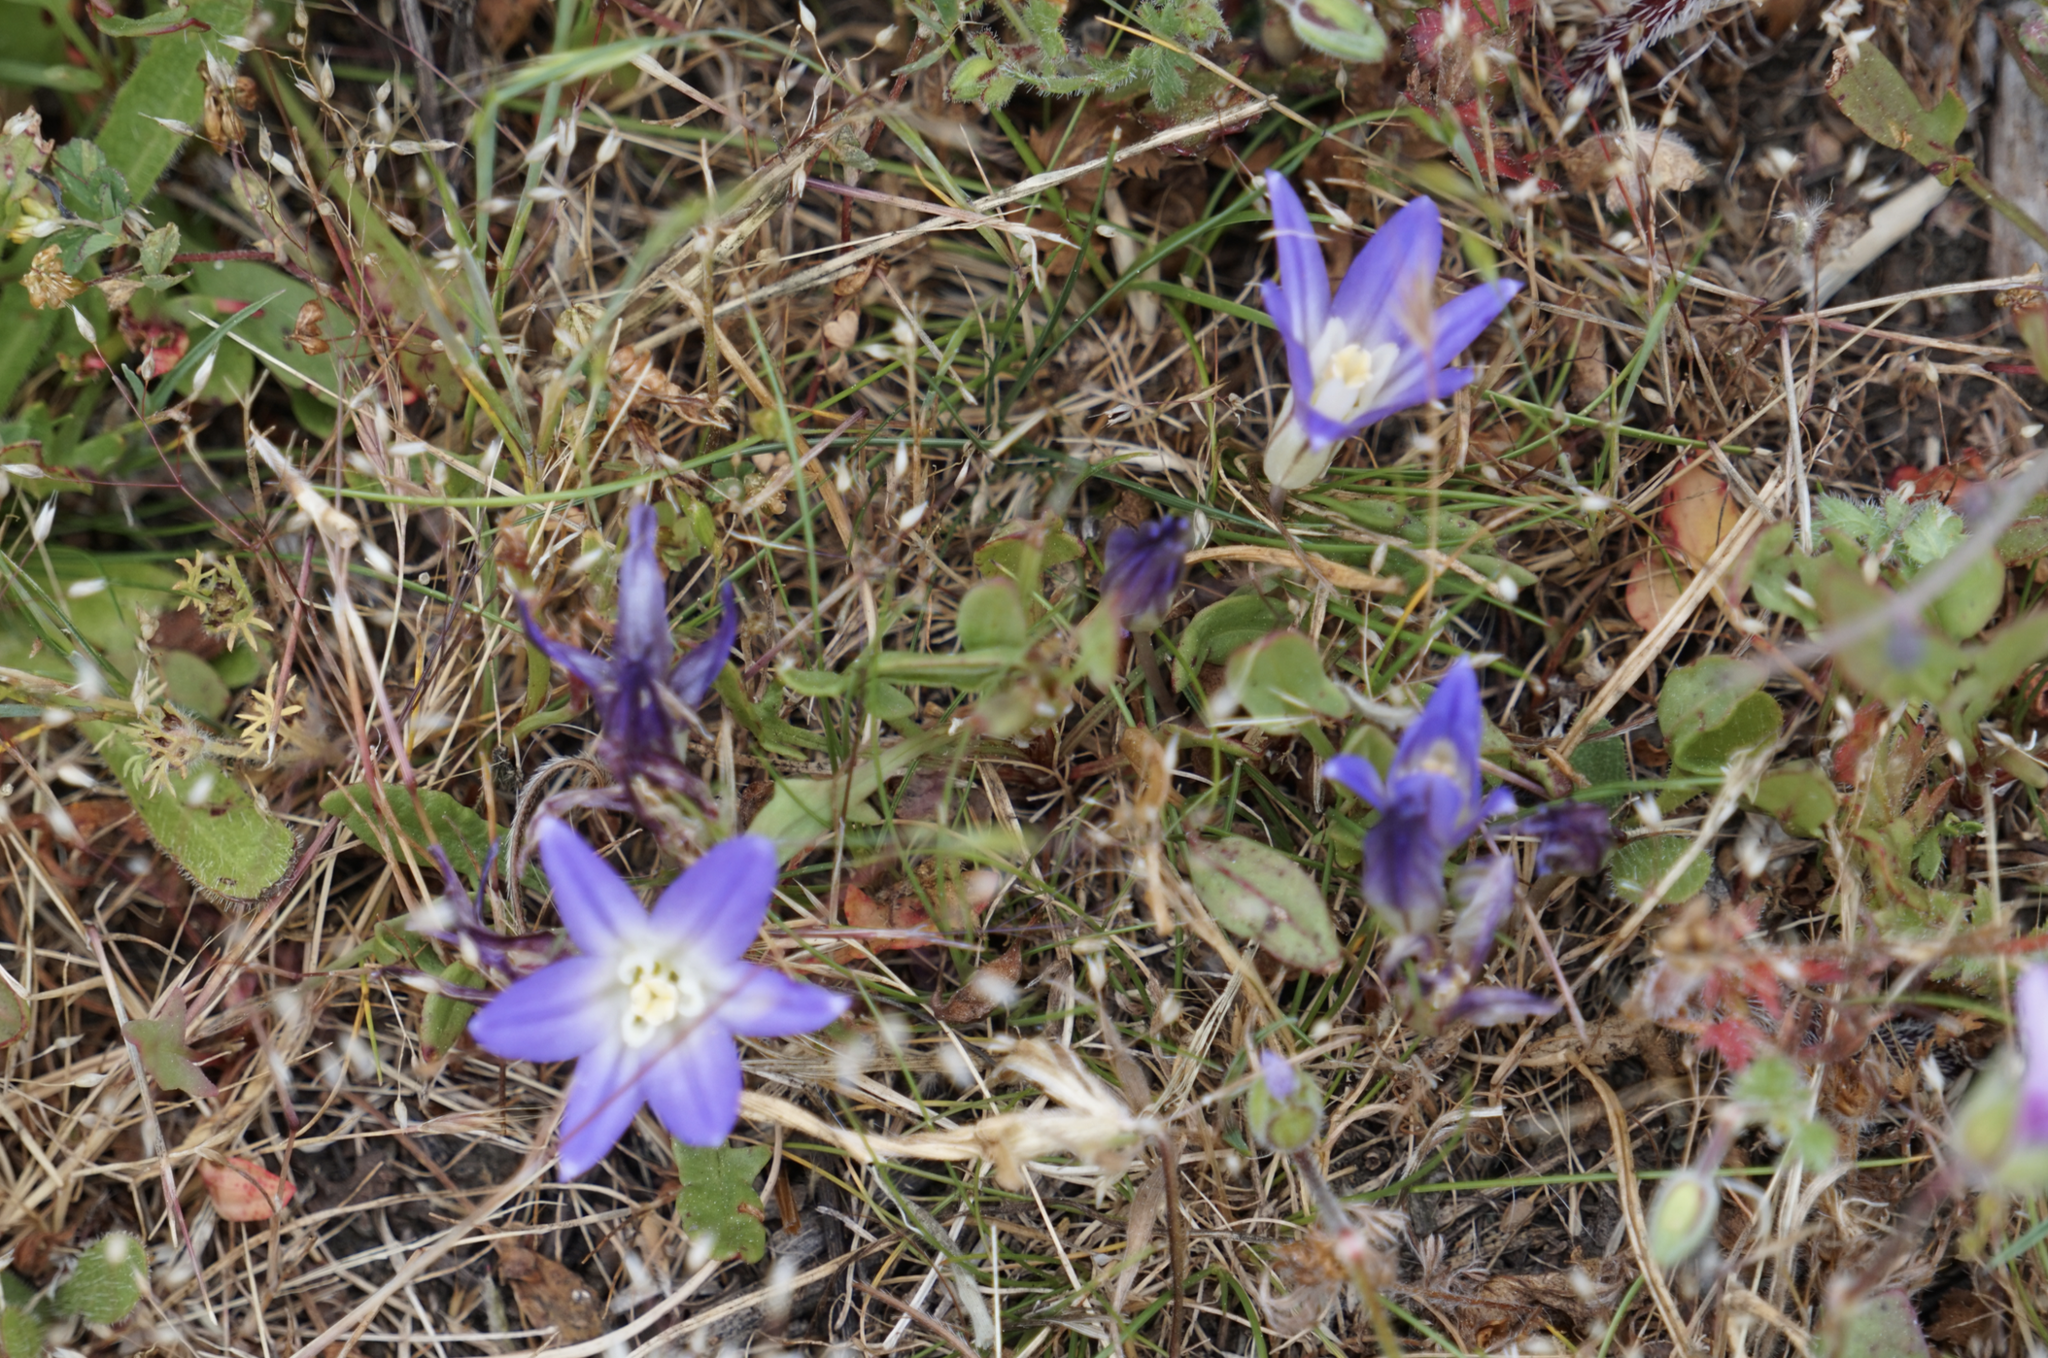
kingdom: Plantae
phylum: Tracheophyta
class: Liliopsida
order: Asparagales
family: Asparagaceae
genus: Brodiaea
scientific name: Brodiaea terrestris
